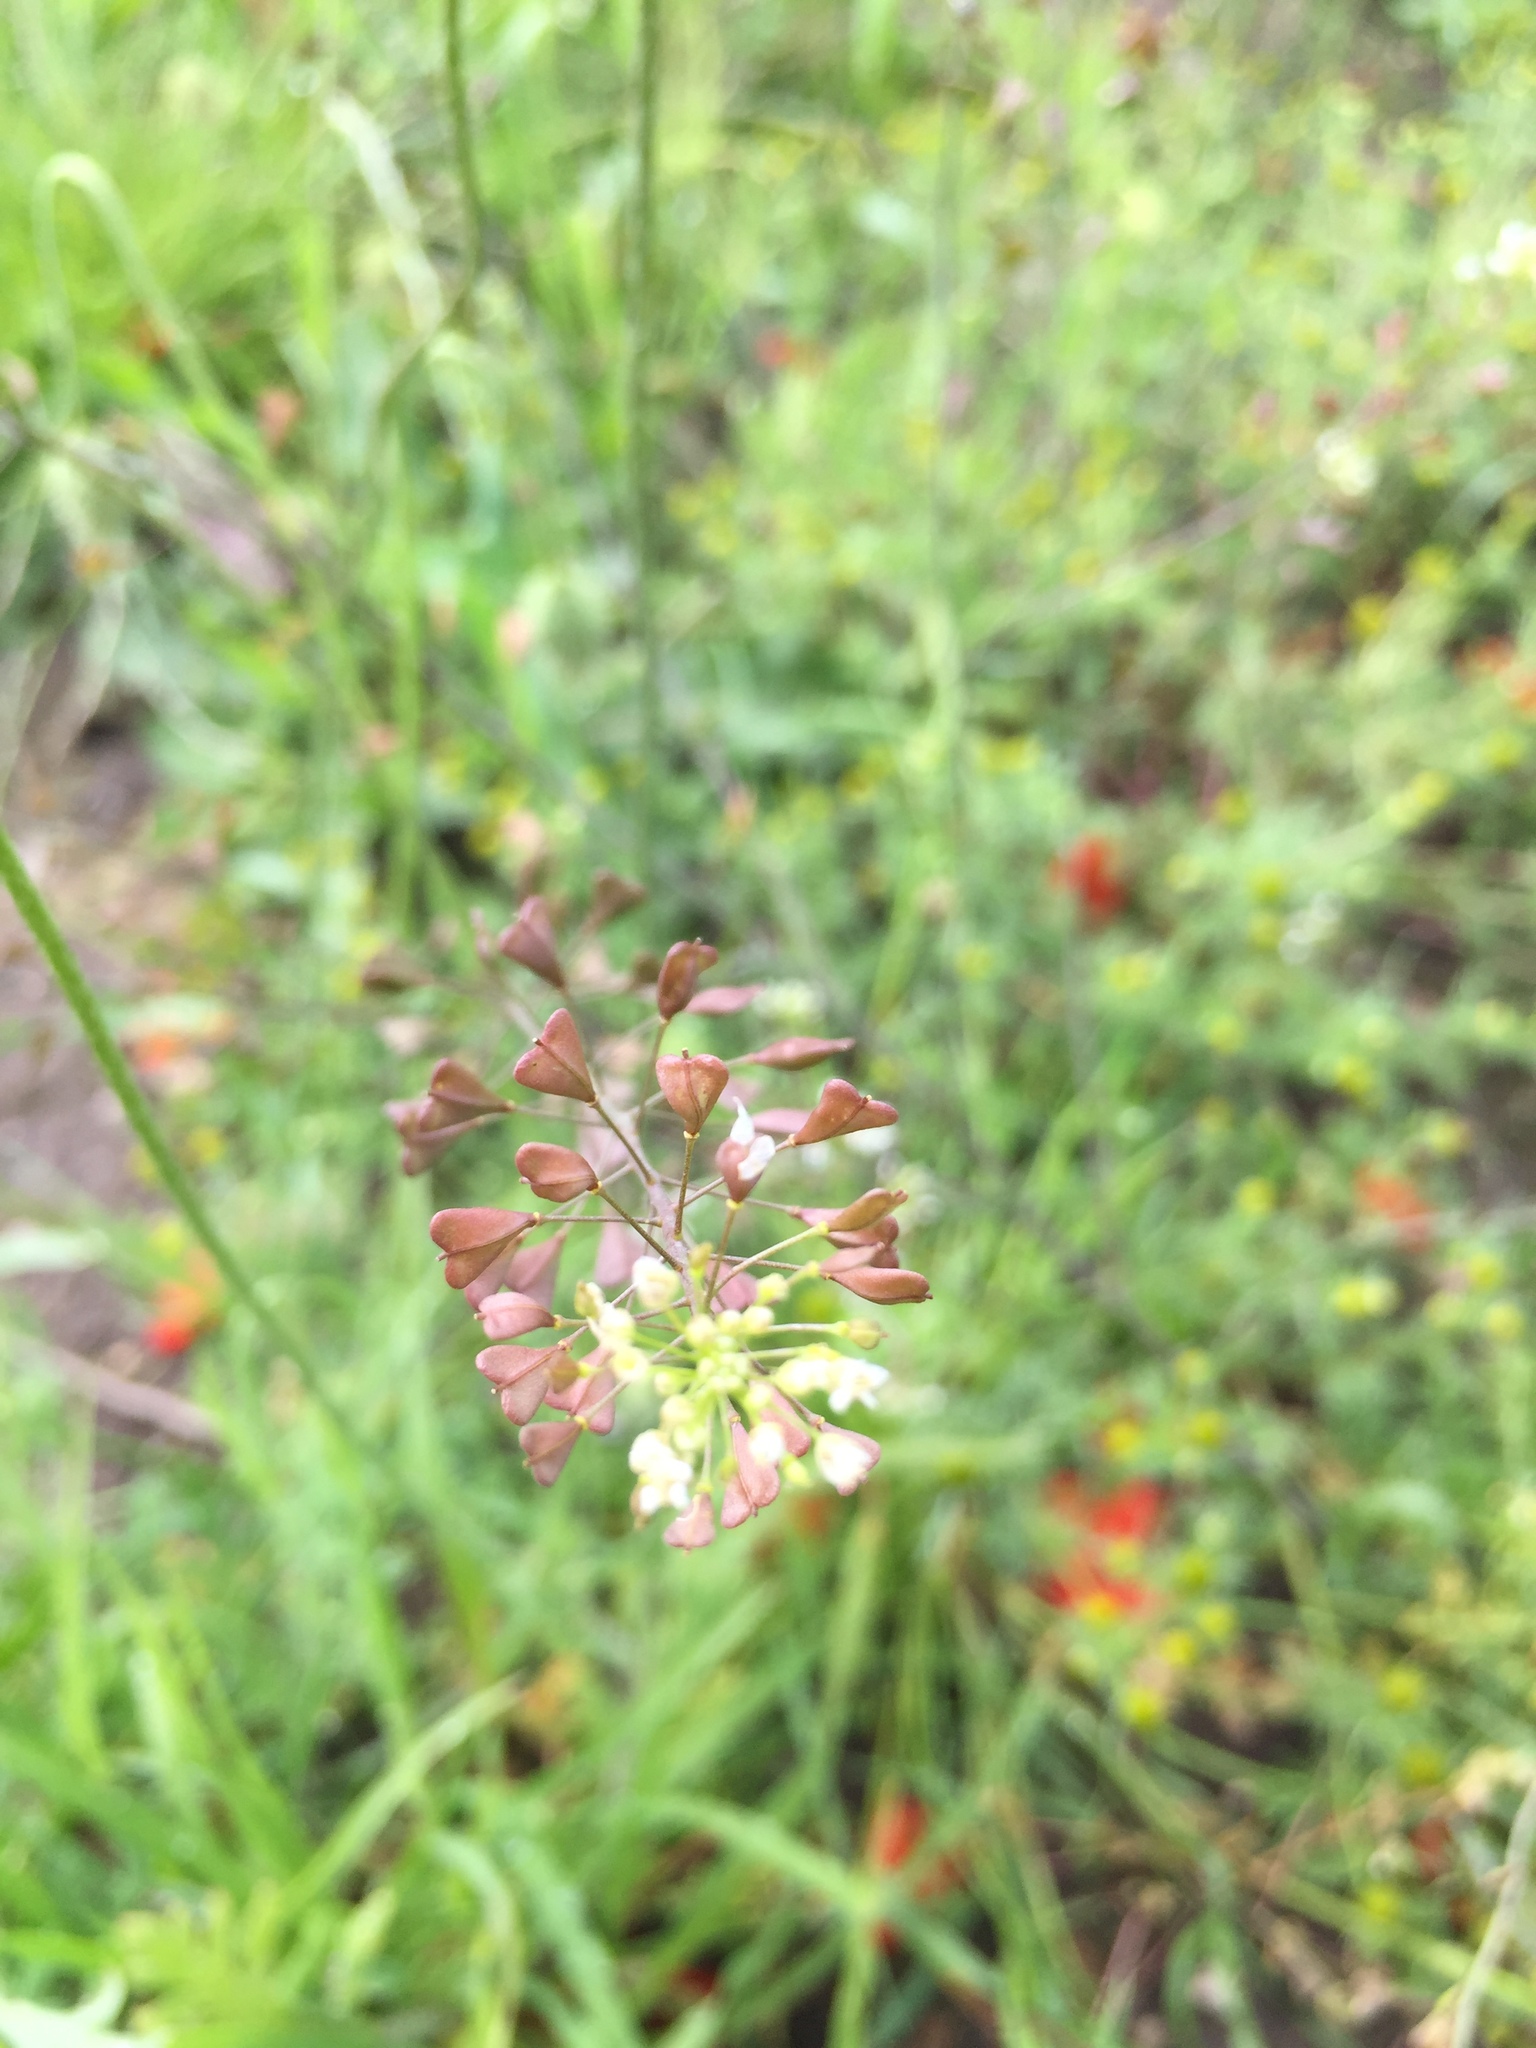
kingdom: Plantae
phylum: Tracheophyta
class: Magnoliopsida
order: Brassicales
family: Brassicaceae
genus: Capsella
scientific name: Capsella bursa-pastoris
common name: Shepherd's purse
